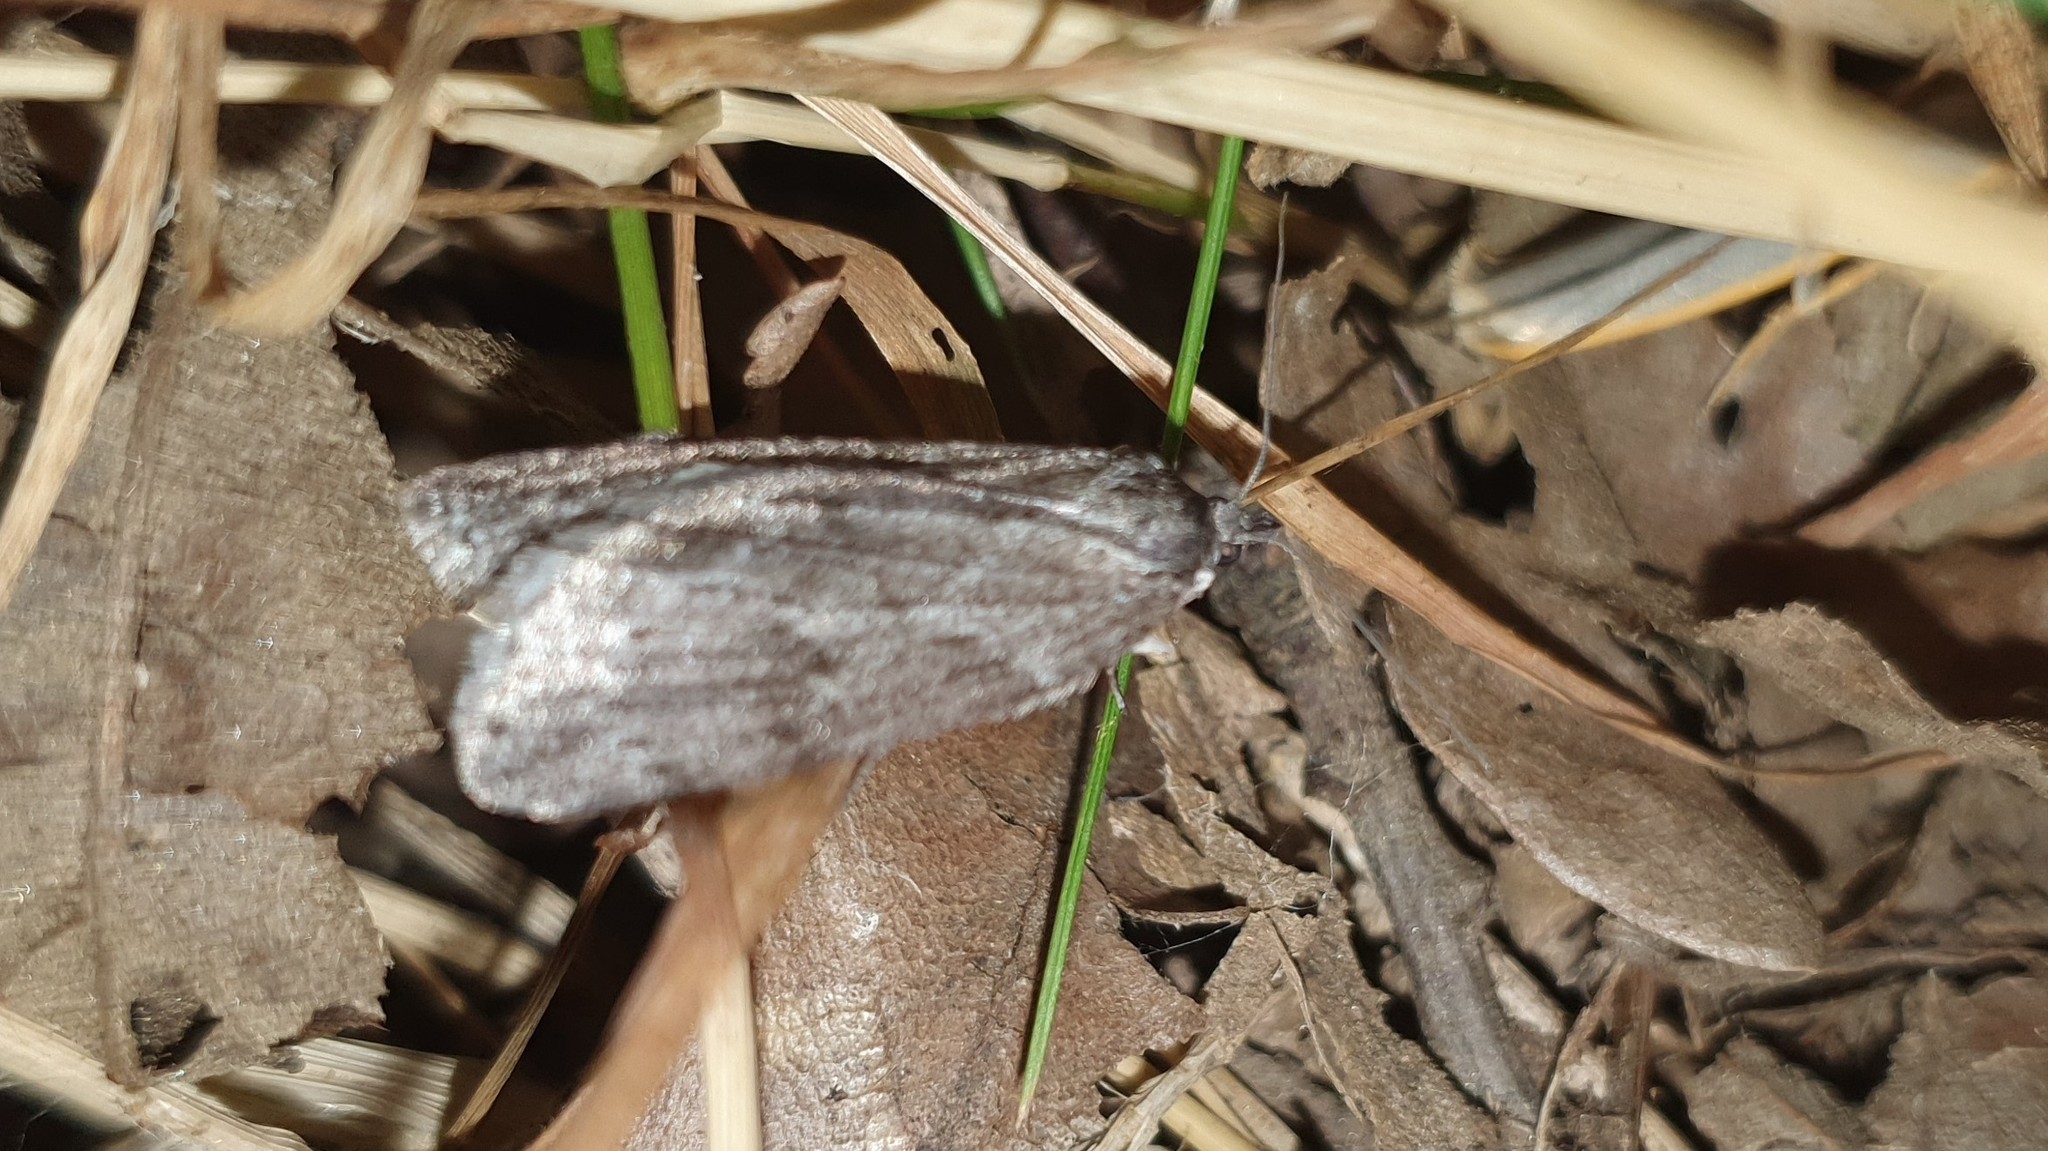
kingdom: Animalia
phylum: Arthropoda
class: Insecta
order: Lepidoptera
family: Geometridae
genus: Pachycnemia
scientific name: Pachycnemia hippocastanaria
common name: Horse chestnut
